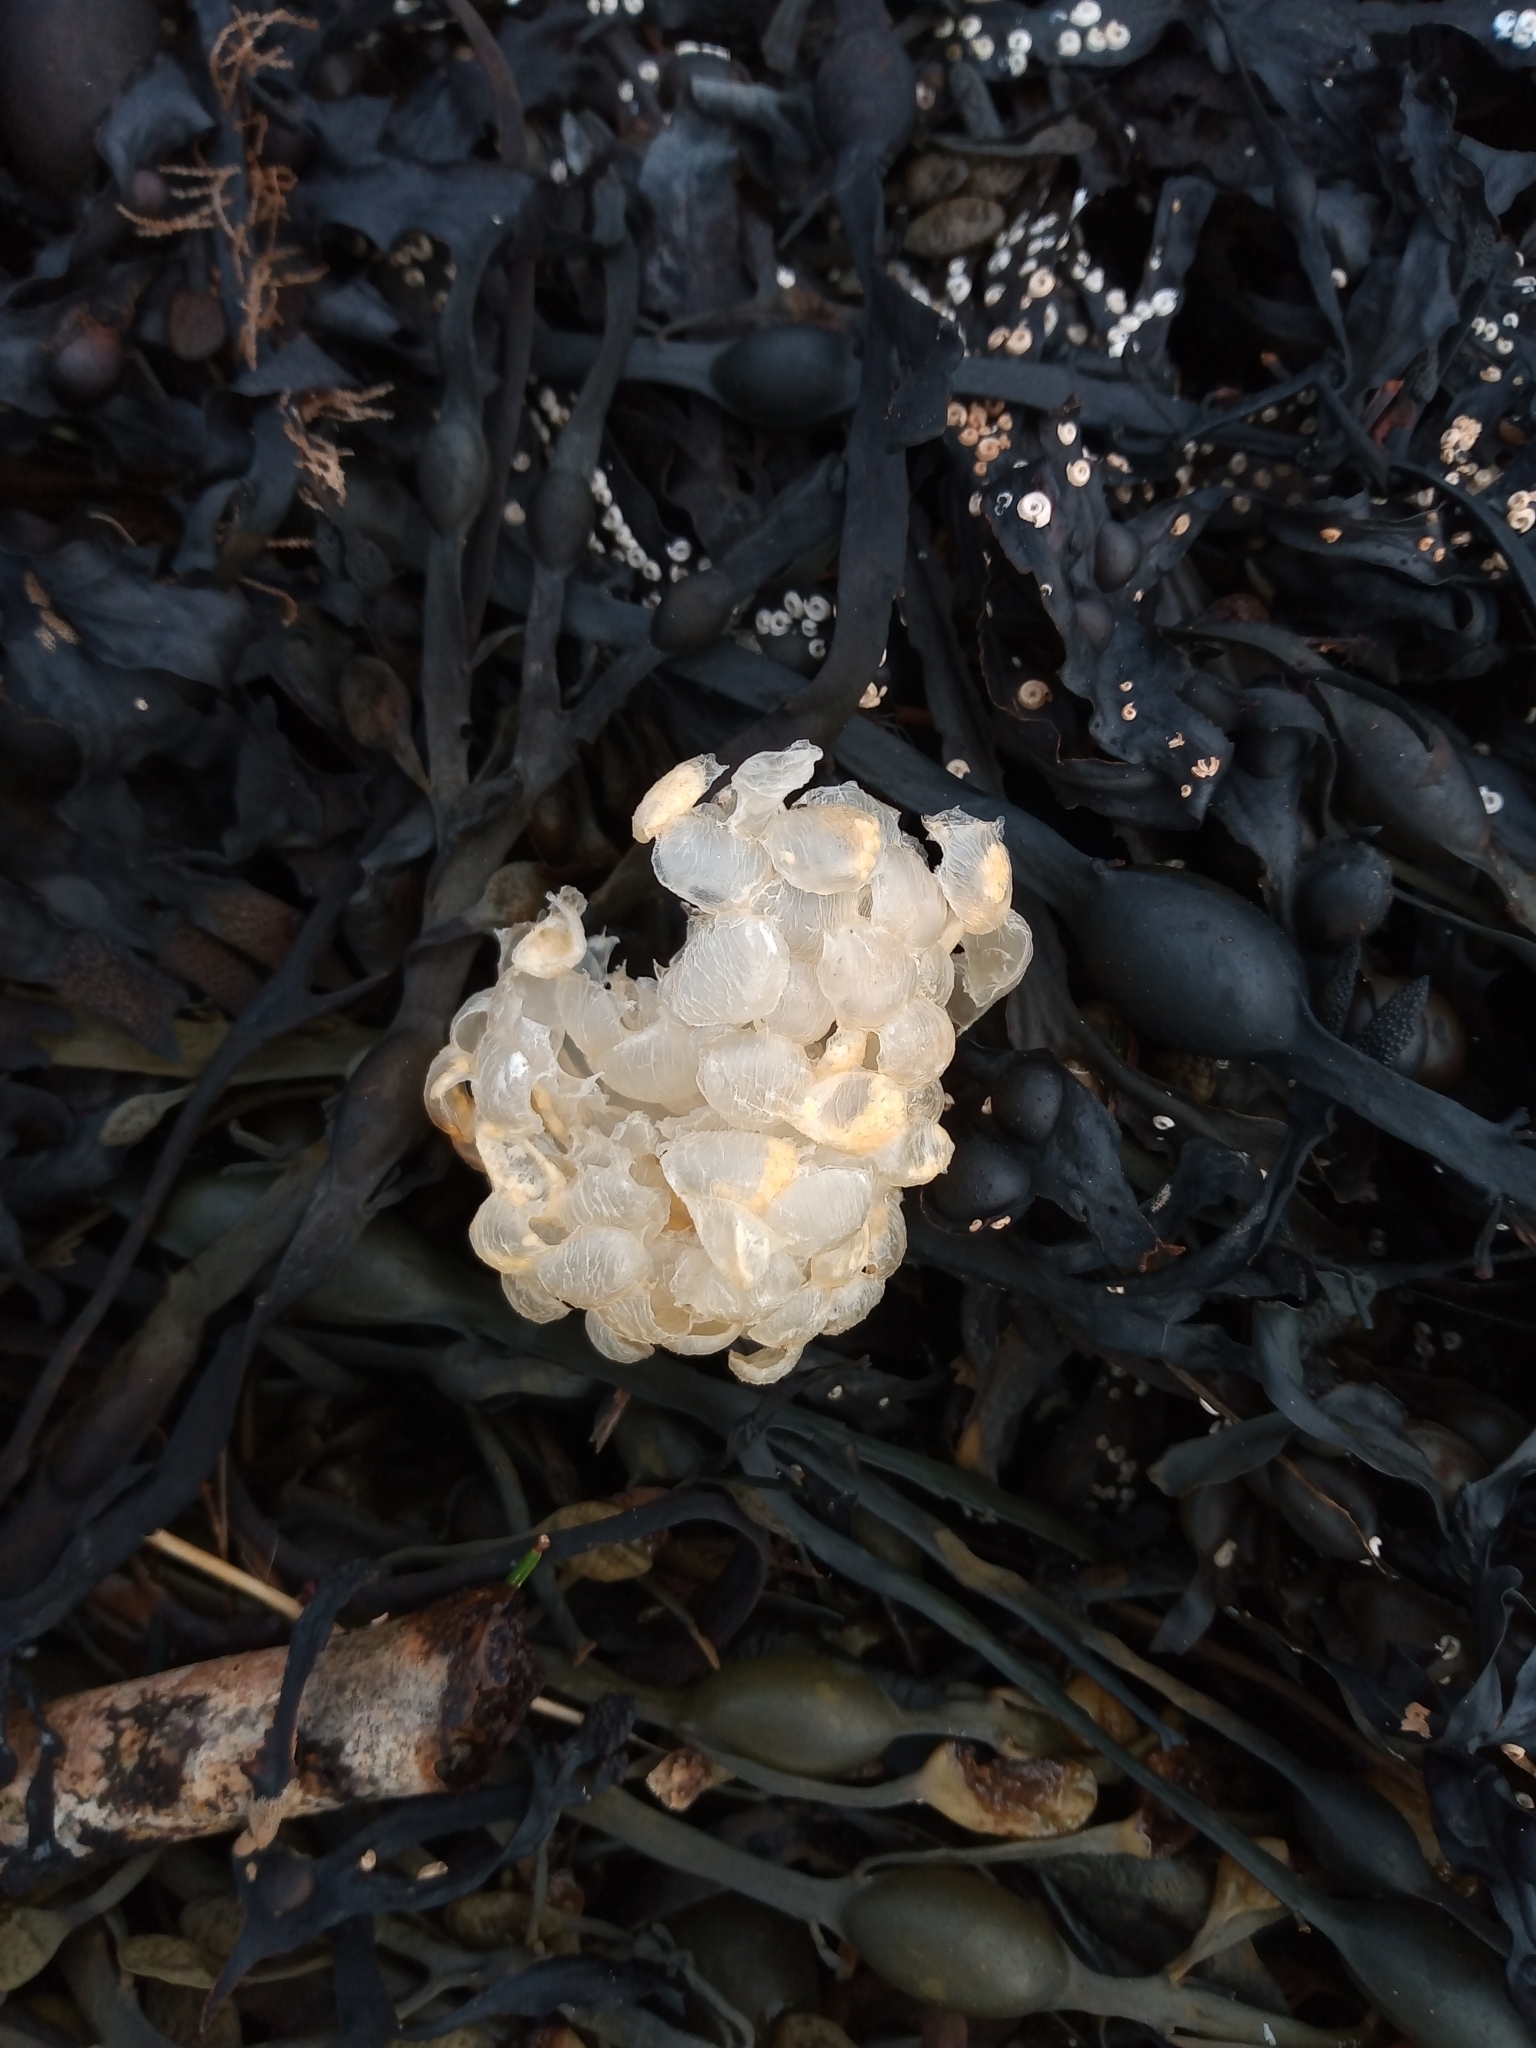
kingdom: Animalia
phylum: Mollusca
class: Gastropoda
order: Neogastropoda
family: Buccinidae
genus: Buccinum
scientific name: Buccinum undatum
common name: Common whelk
